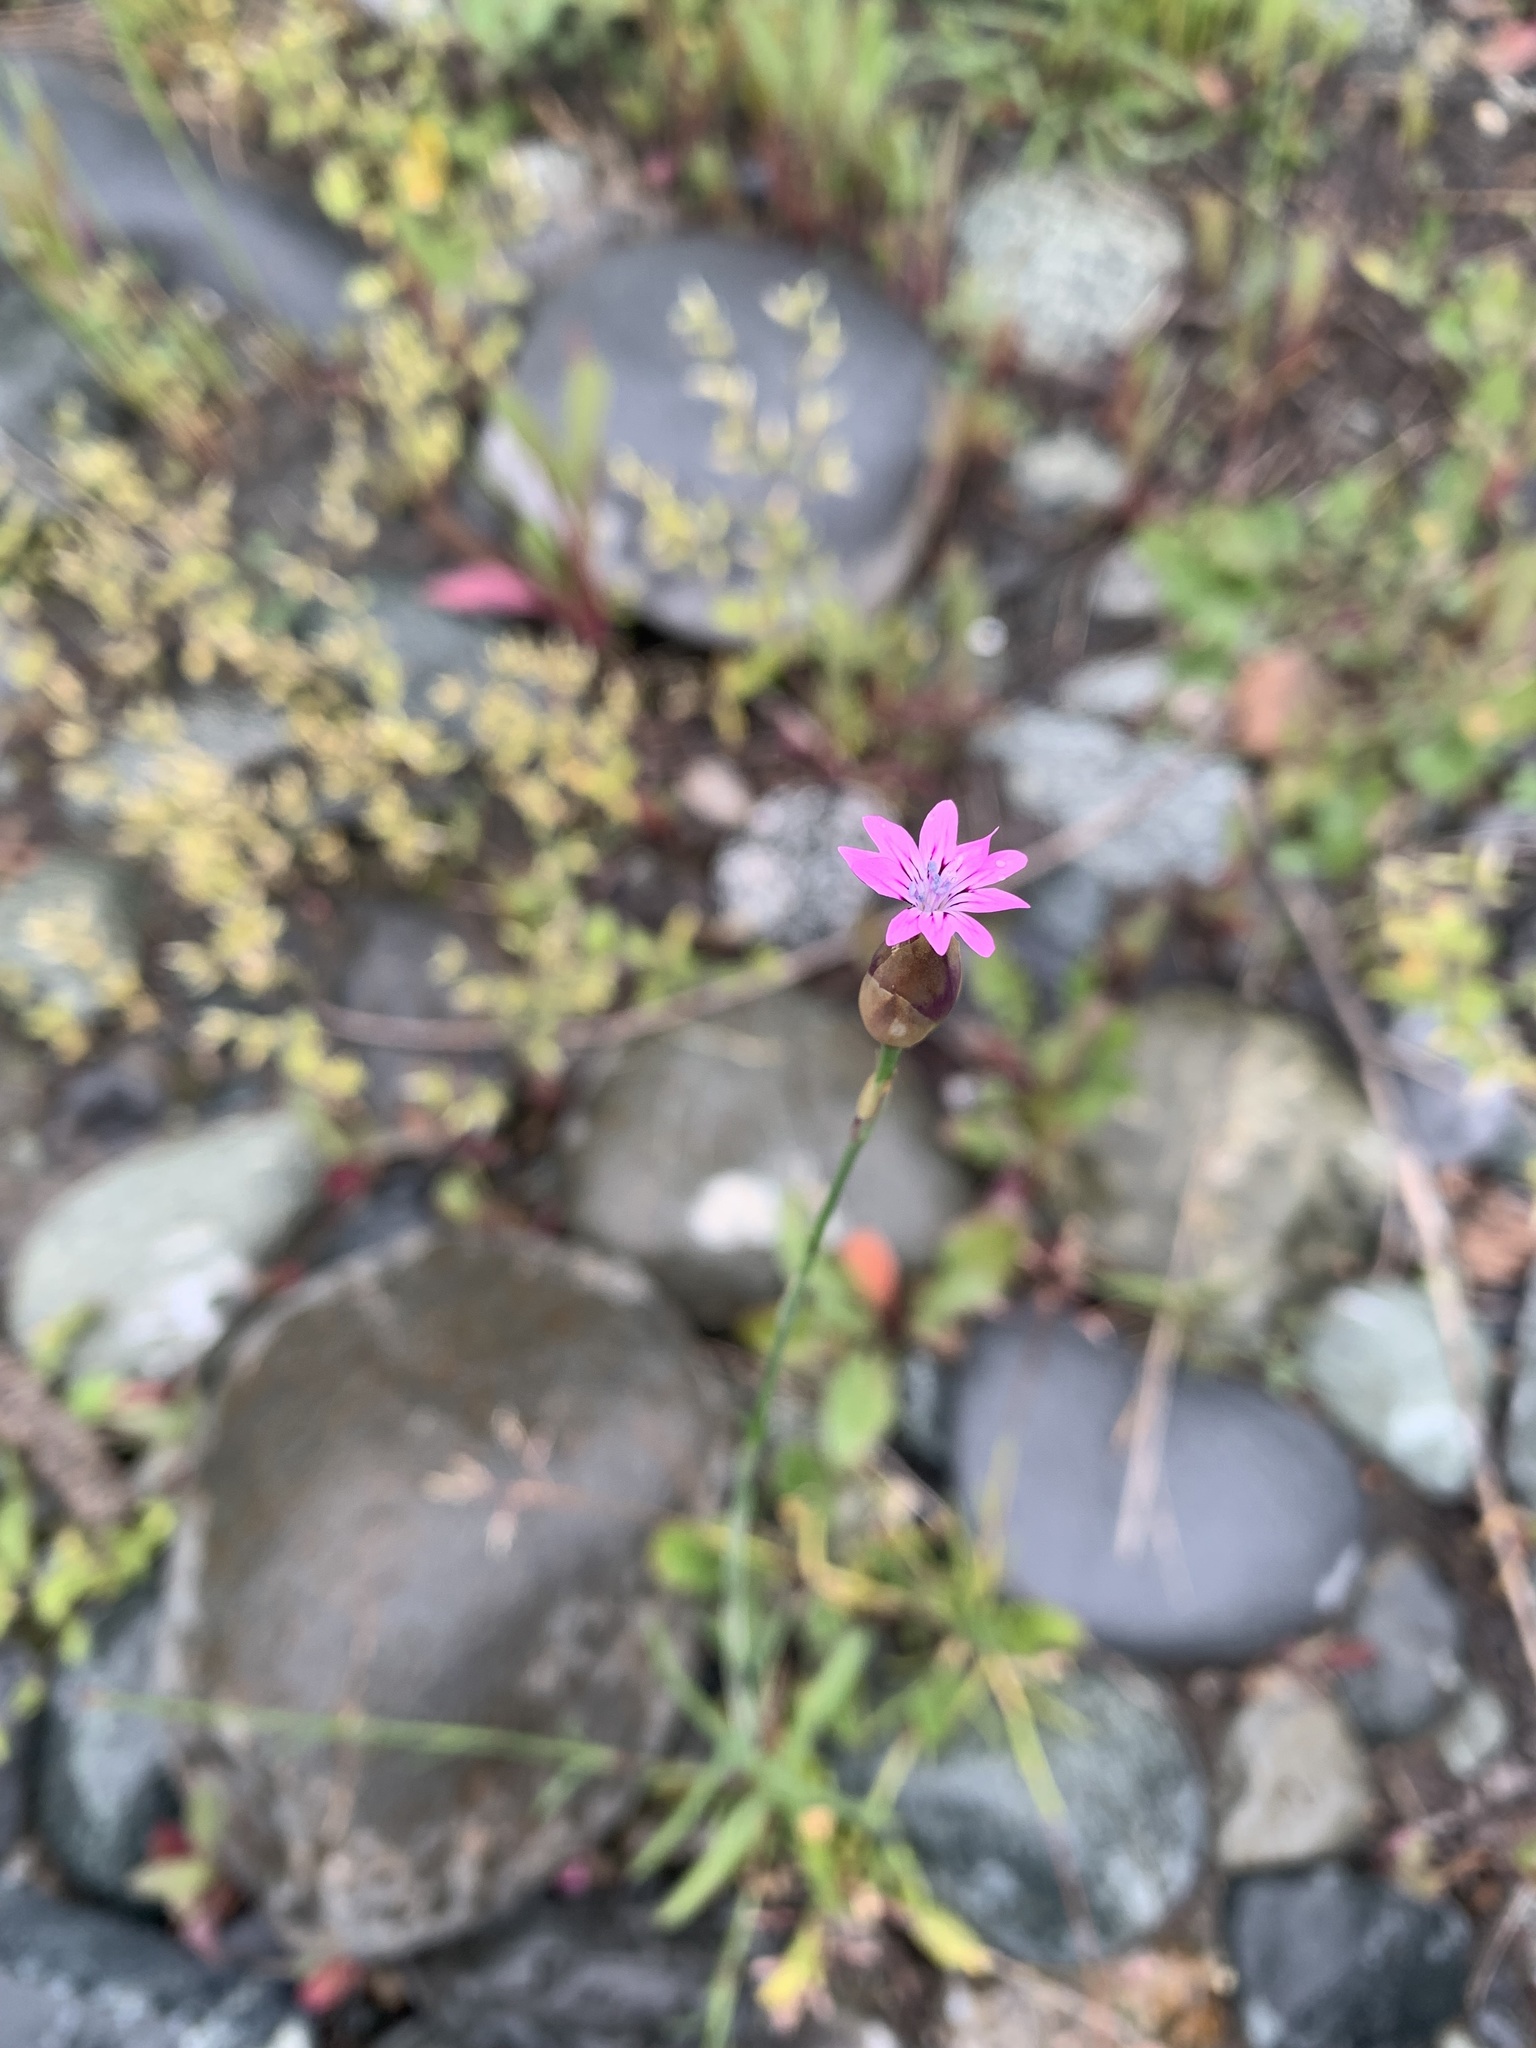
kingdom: Plantae
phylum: Tracheophyta
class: Magnoliopsida
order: Caryophyllales
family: Caryophyllaceae
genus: Petrorhagia
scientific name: Petrorhagia dubia
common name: Hairypink
